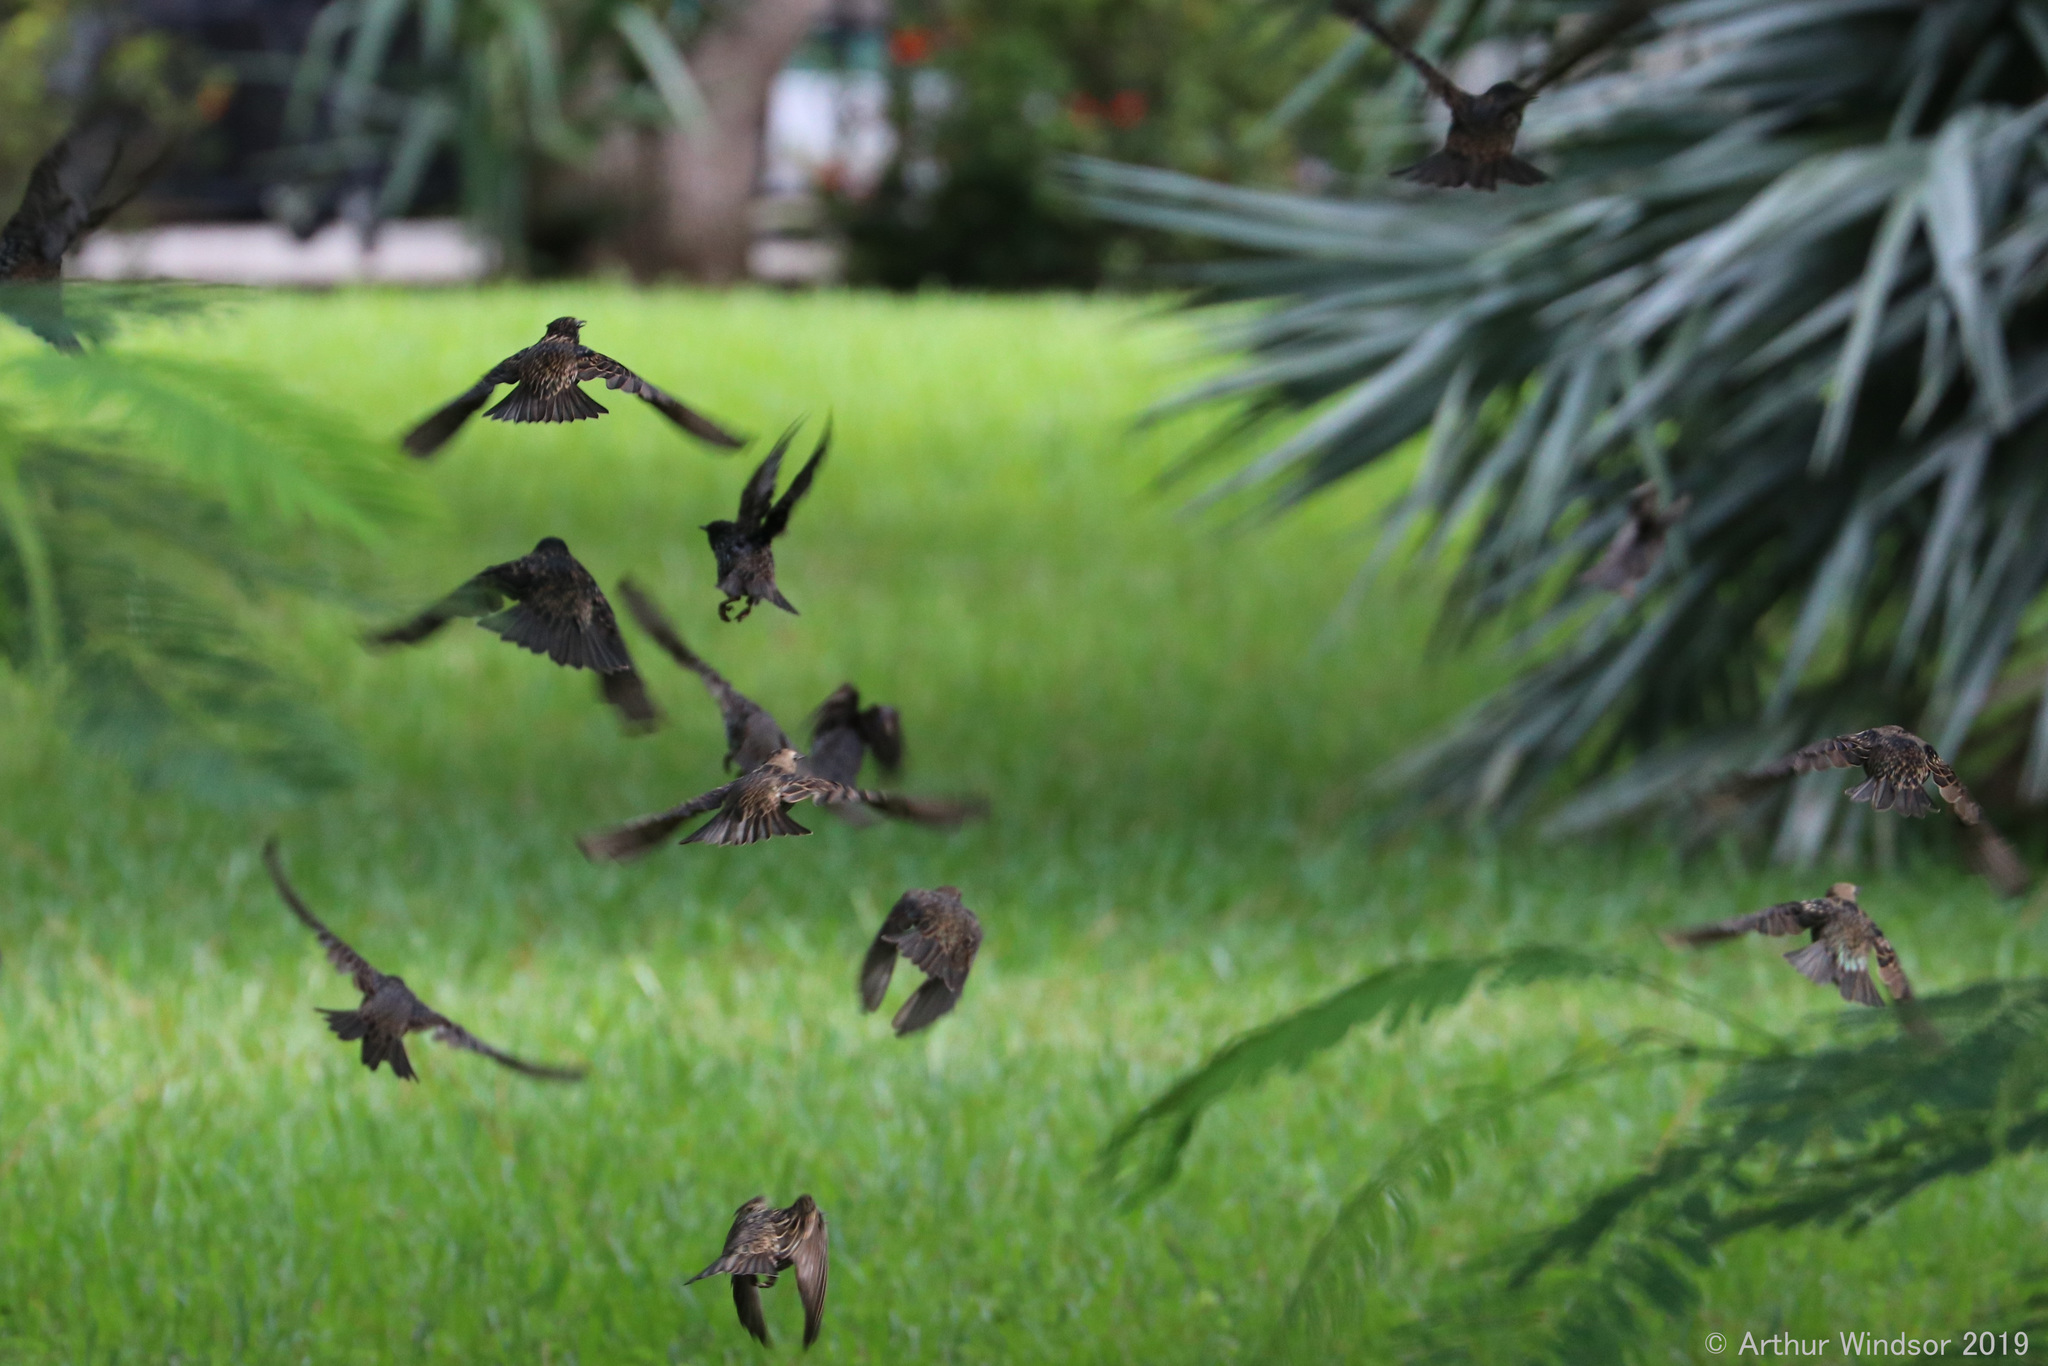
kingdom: Animalia
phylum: Chordata
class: Aves
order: Passeriformes
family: Sturnidae
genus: Sturnus
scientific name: Sturnus vulgaris
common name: Common starling
